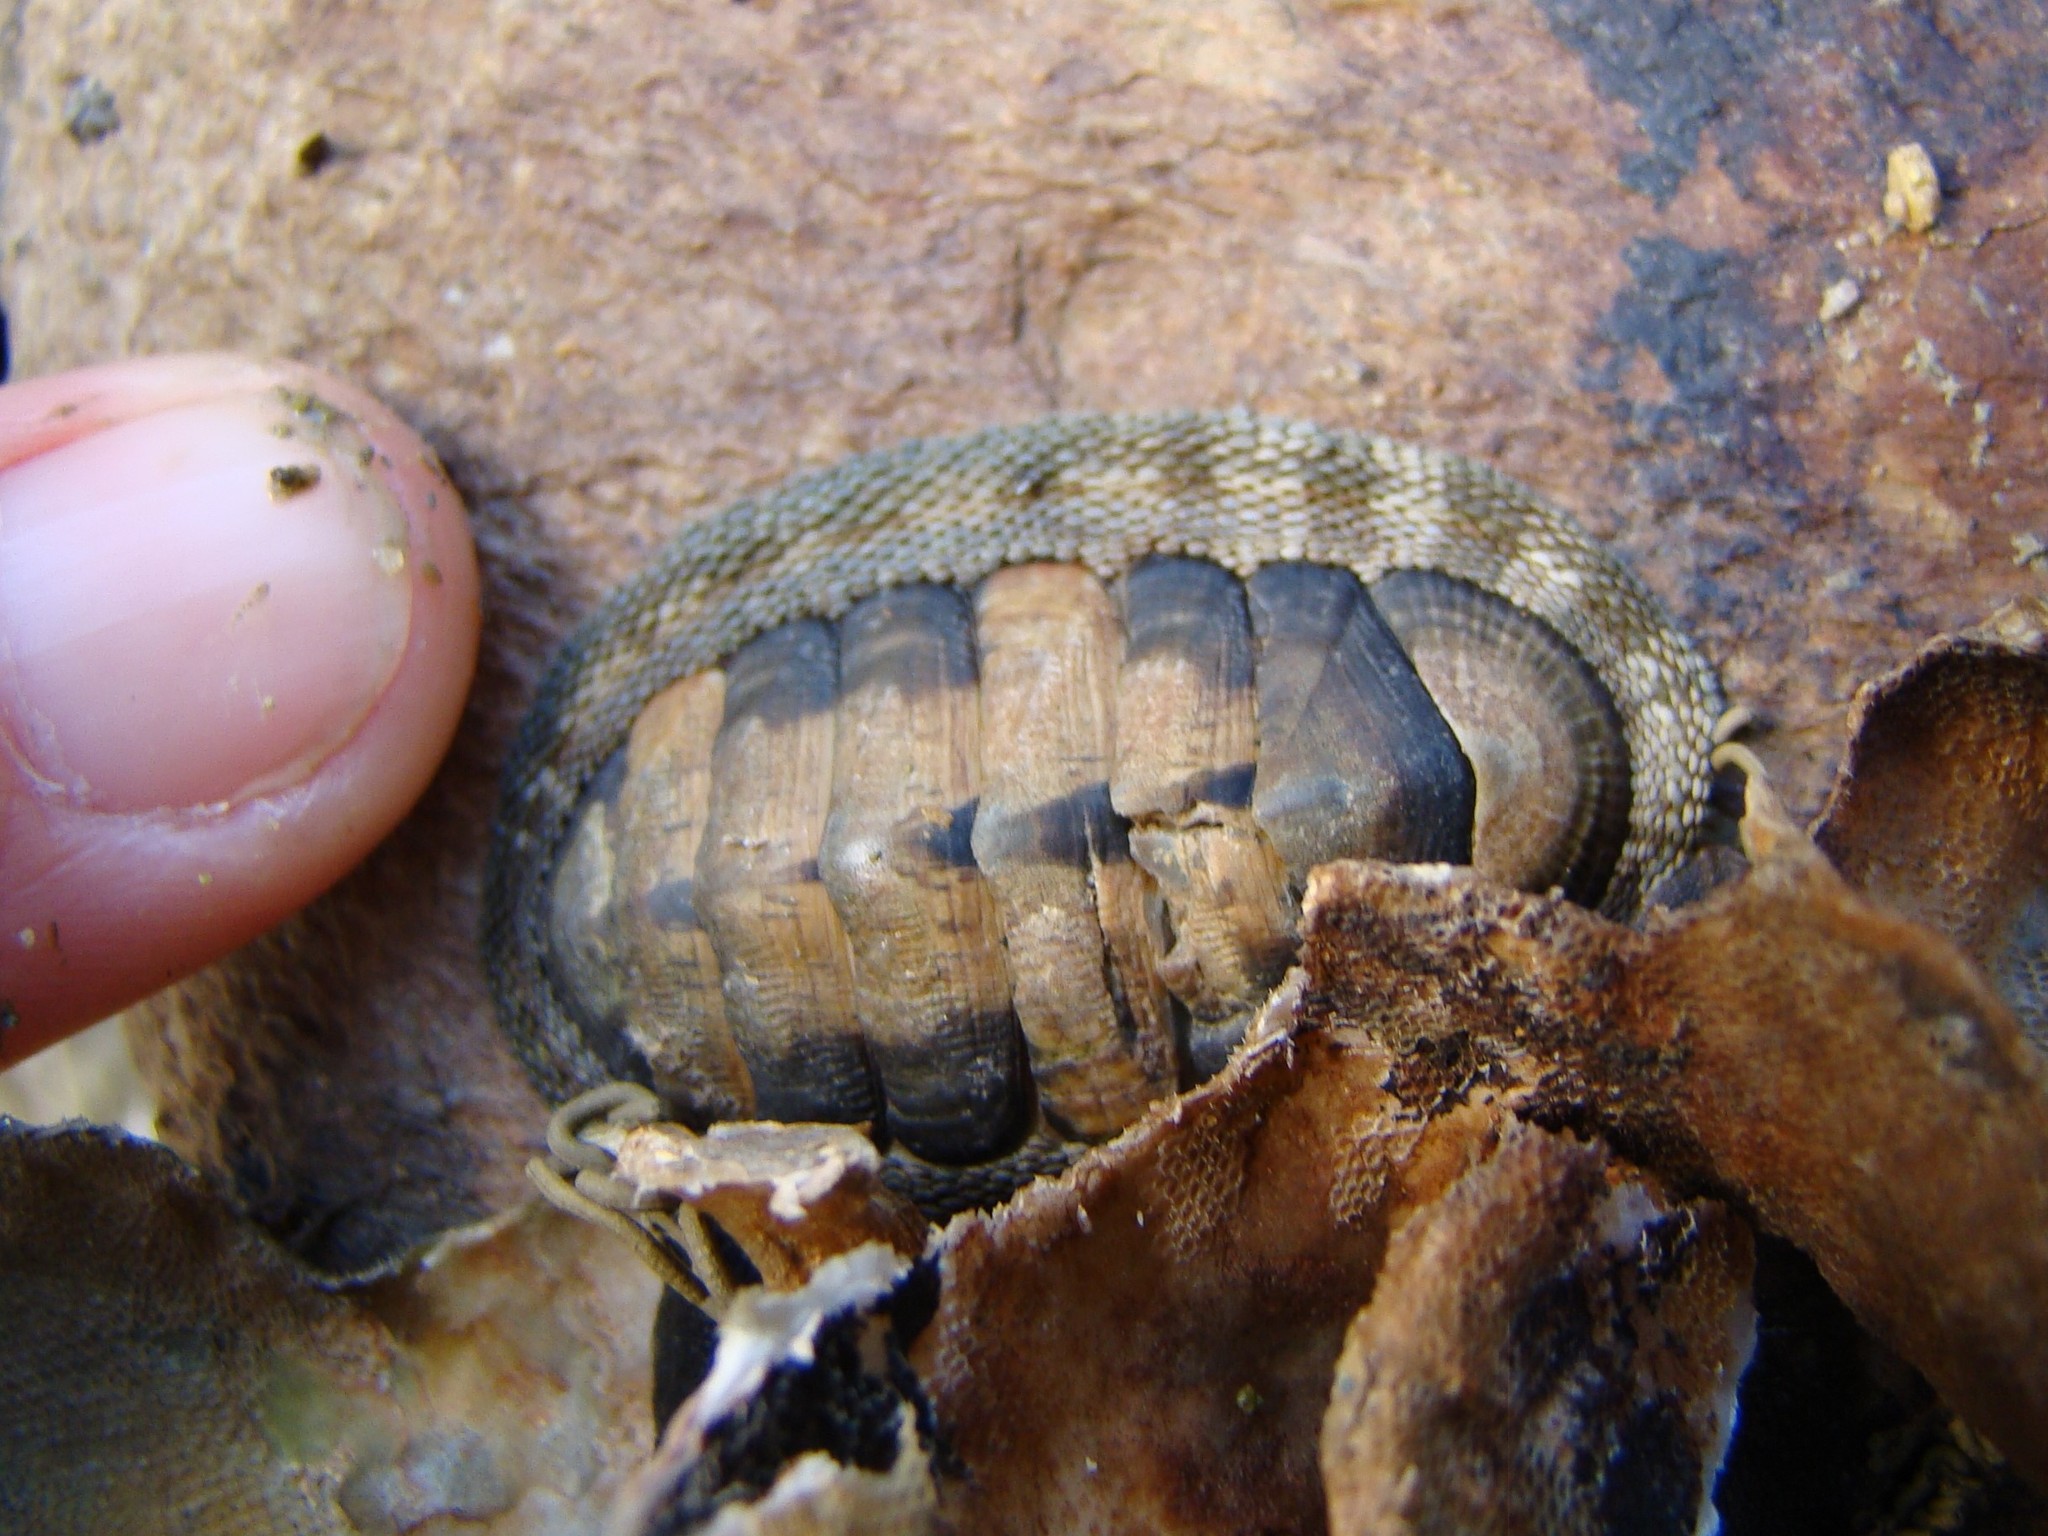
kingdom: Animalia
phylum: Mollusca
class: Polyplacophora
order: Chitonida
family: Chitonidae
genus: Sypharochiton
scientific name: Sypharochiton pelliserpentis
